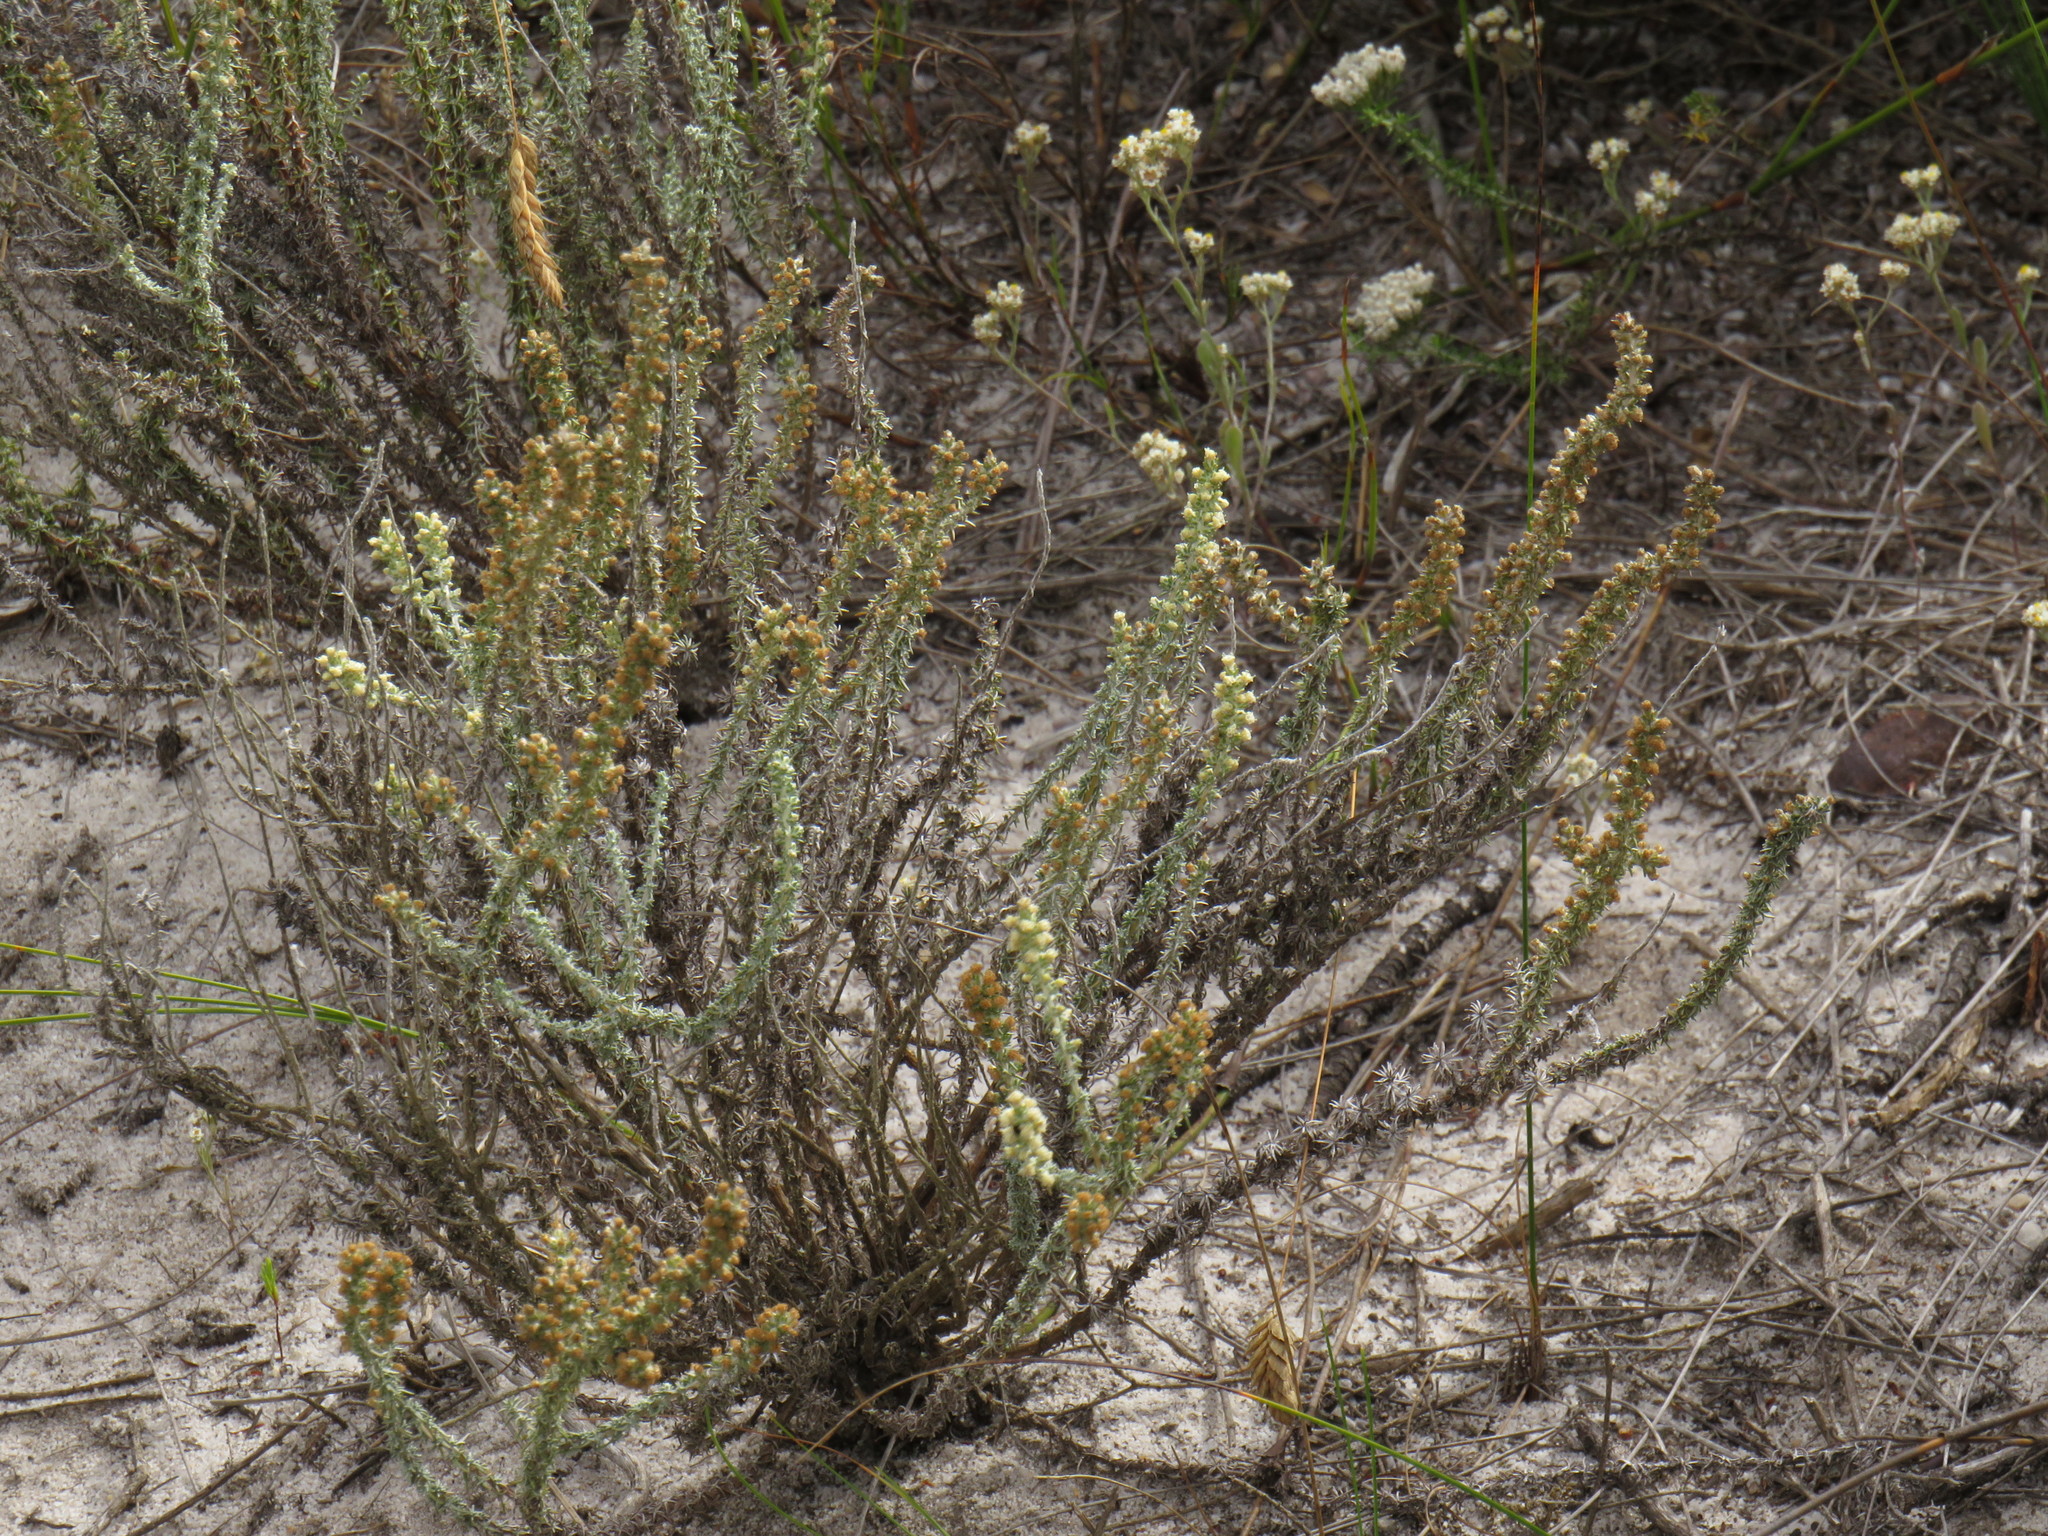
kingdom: Plantae
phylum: Tracheophyta
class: Magnoliopsida
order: Asterales
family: Asteraceae
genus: Ifloga
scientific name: Ifloga ambigua
